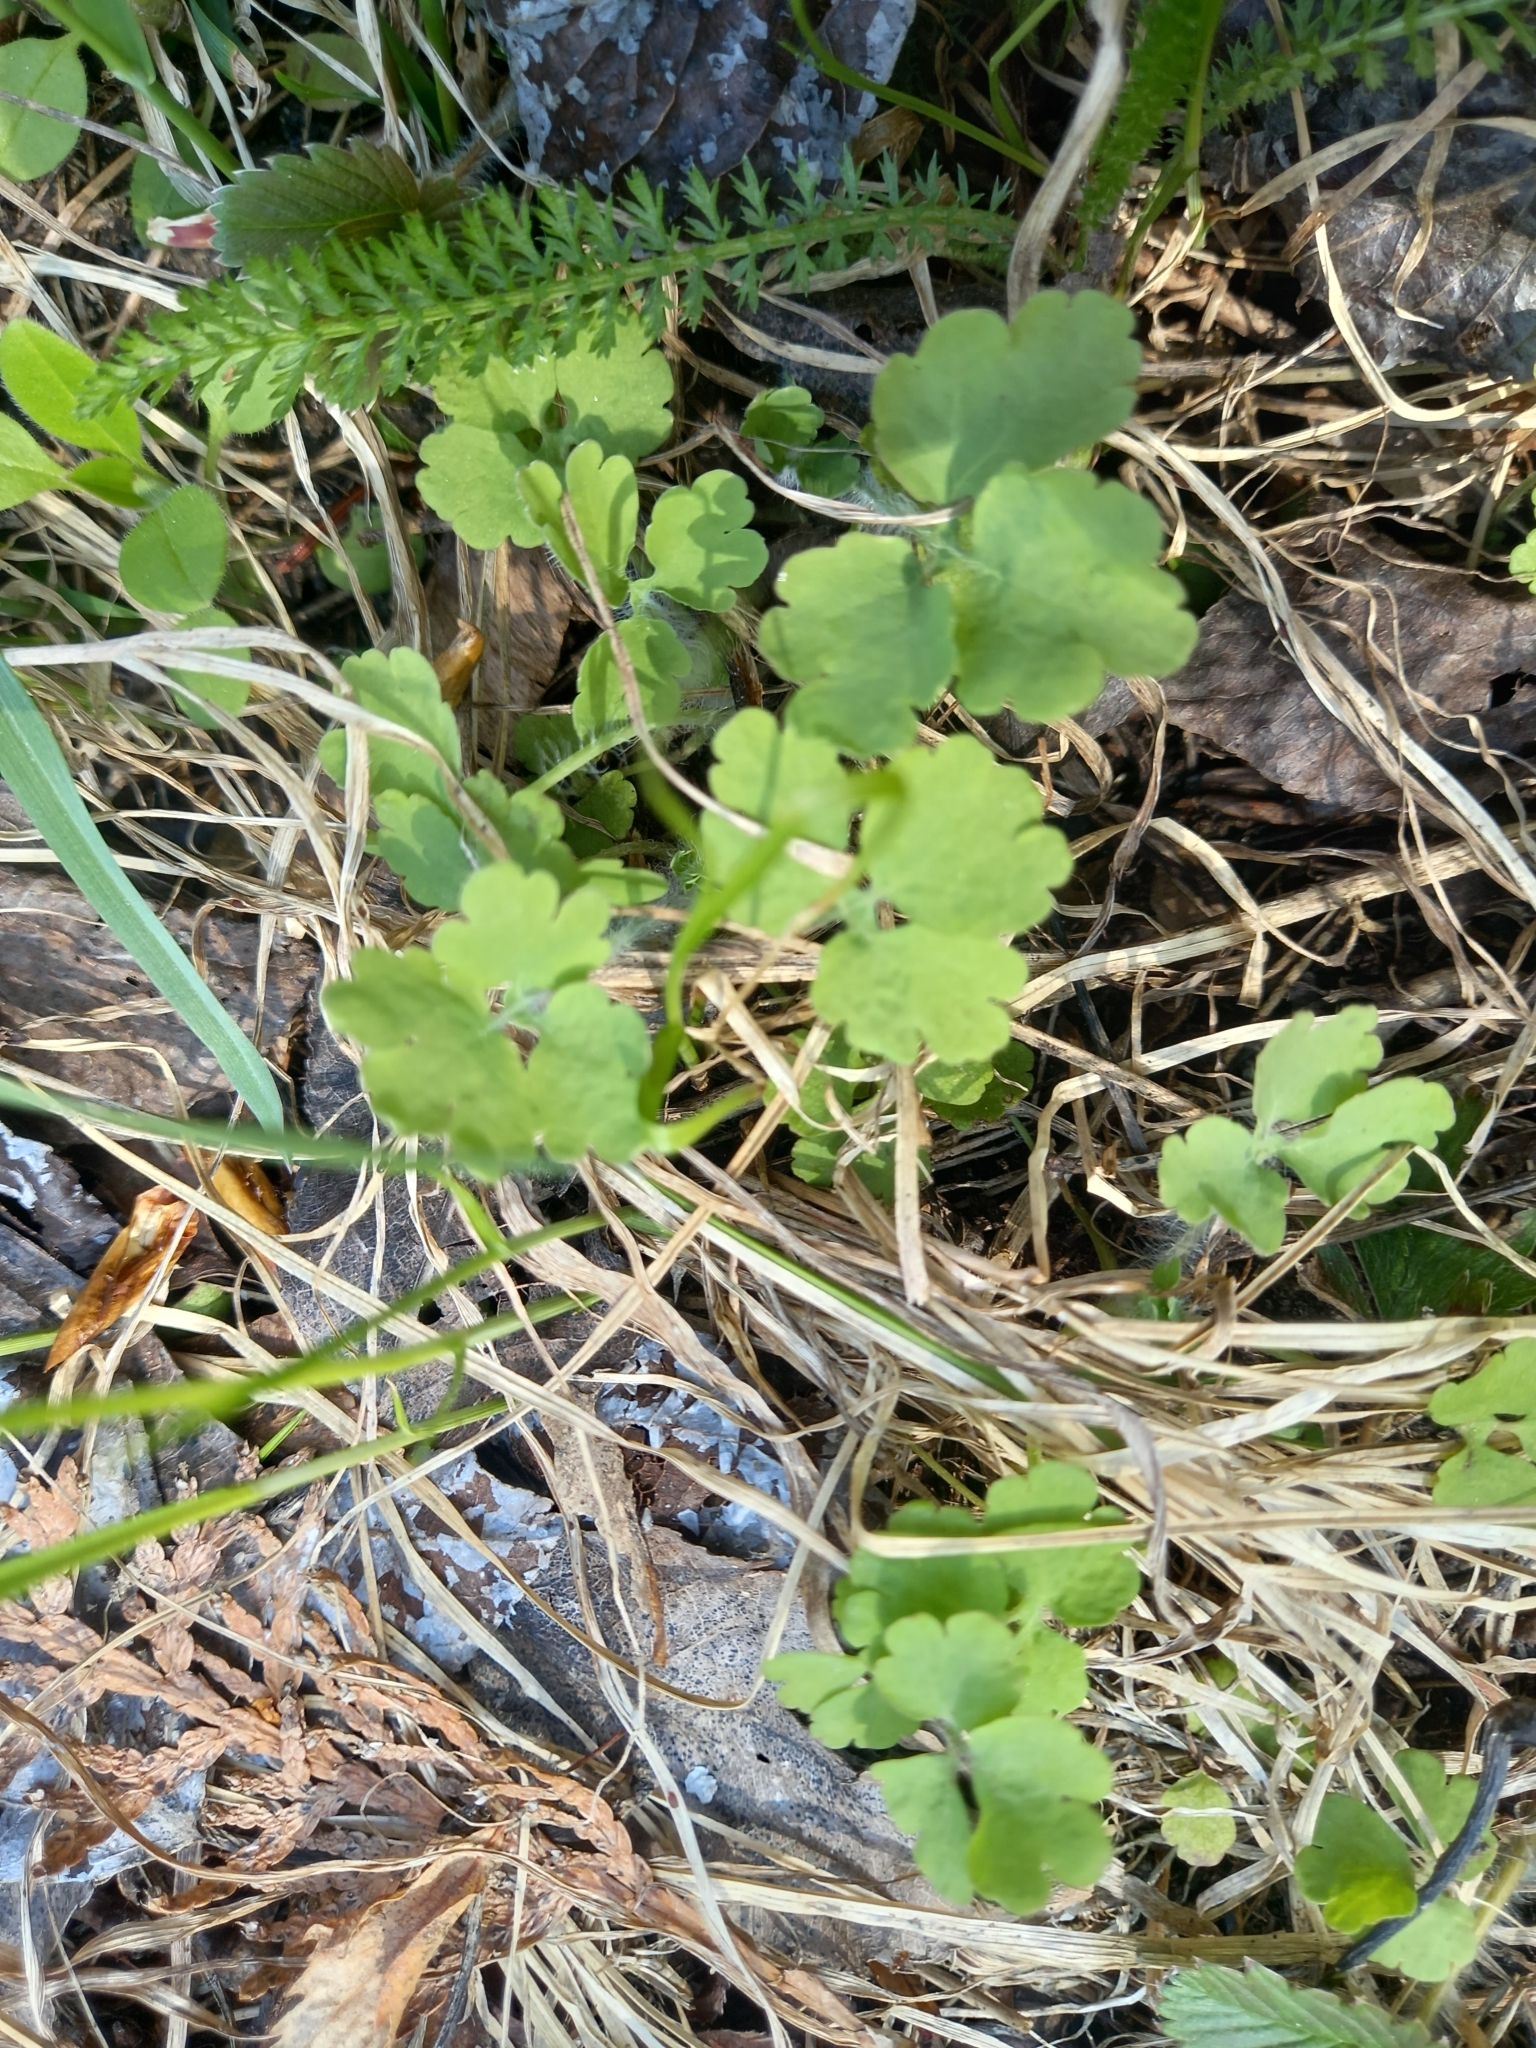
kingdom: Plantae
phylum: Tracheophyta
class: Magnoliopsida
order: Ranunculales
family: Papaveraceae
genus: Chelidonium
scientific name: Chelidonium majus
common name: Greater celandine
